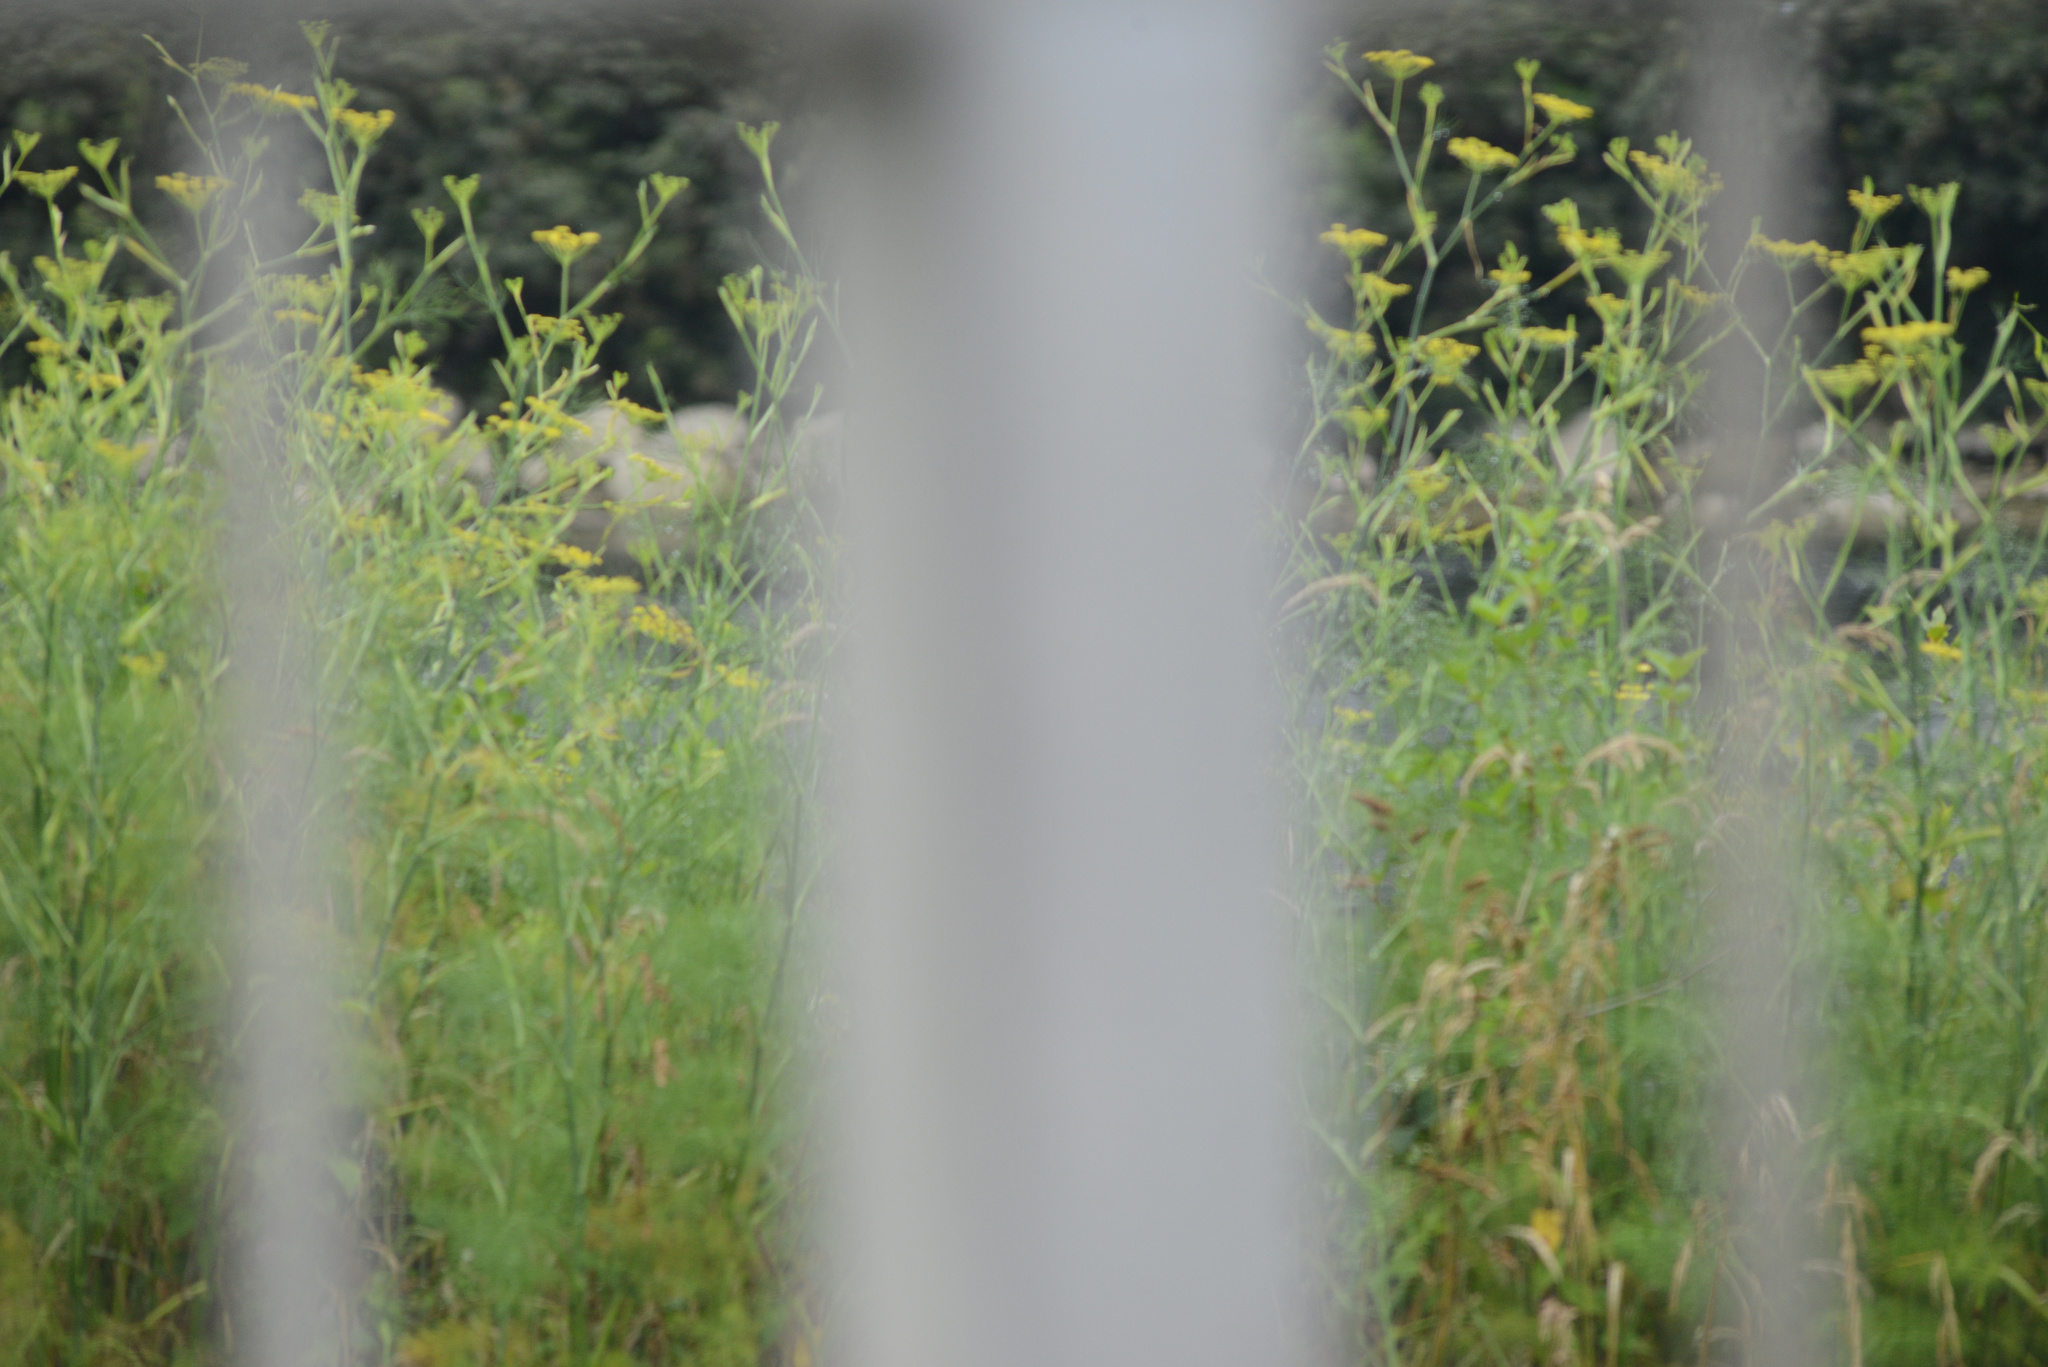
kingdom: Plantae
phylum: Tracheophyta
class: Magnoliopsida
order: Apiales
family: Apiaceae
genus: Foeniculum
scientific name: Foeniculum vulgare
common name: Fennel
